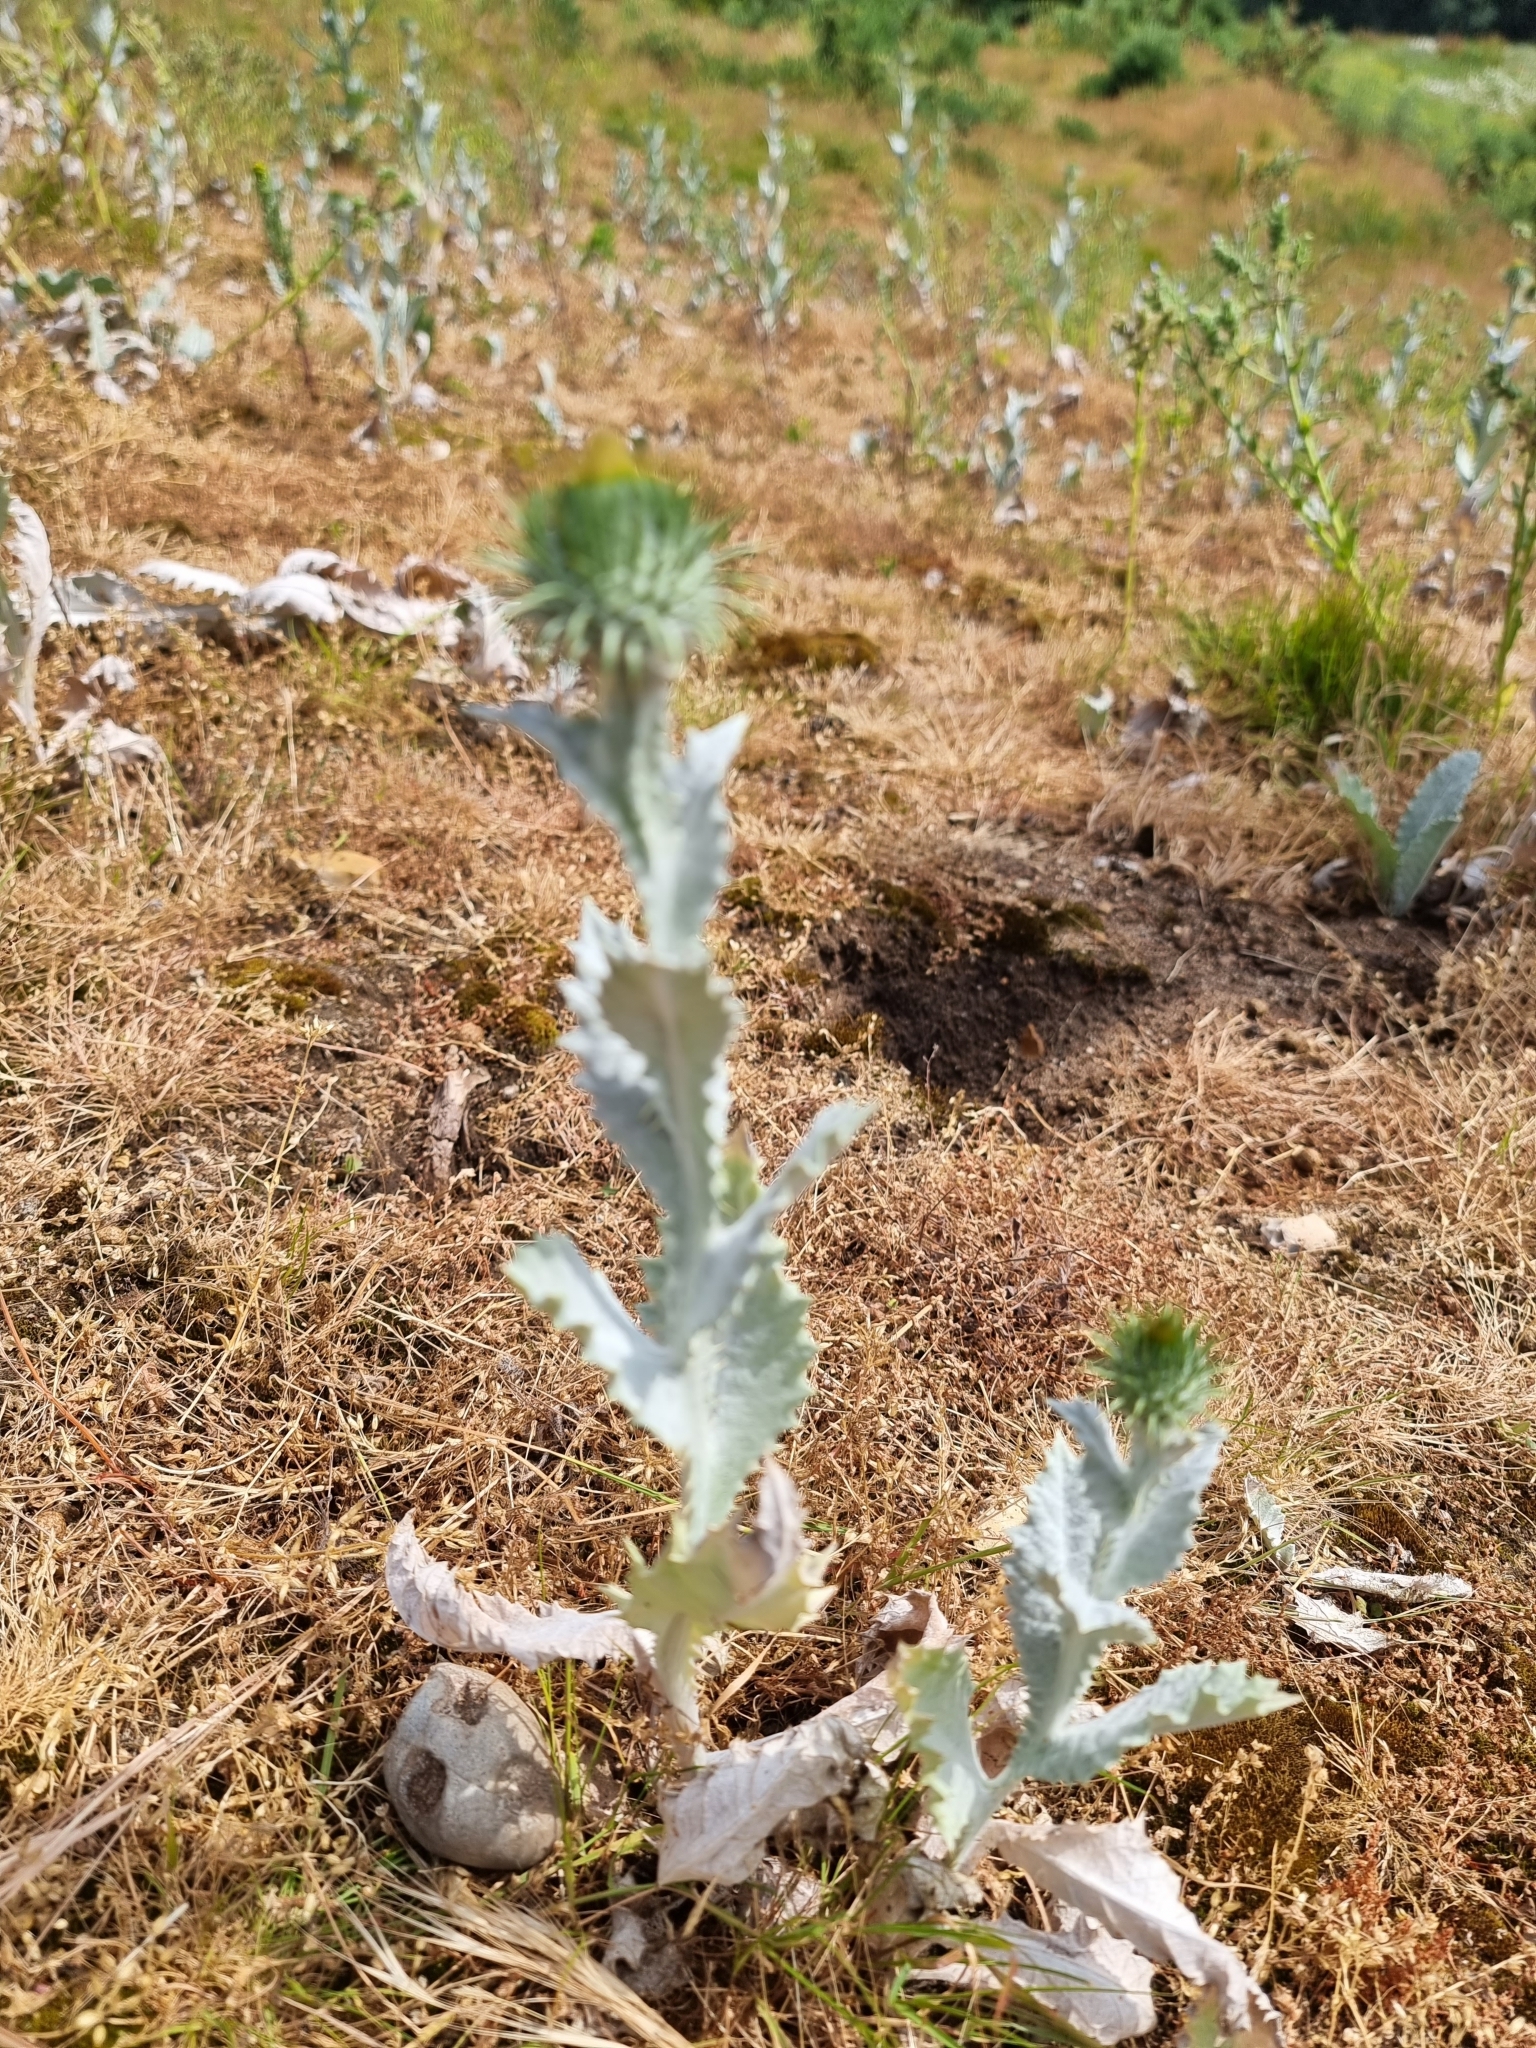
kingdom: Plantae
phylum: Tracheophyta
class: Magnoliopsida
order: Asterales
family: Asteraceae
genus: Onopordum
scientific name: Onopordum acanthium
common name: Scotch thistle
